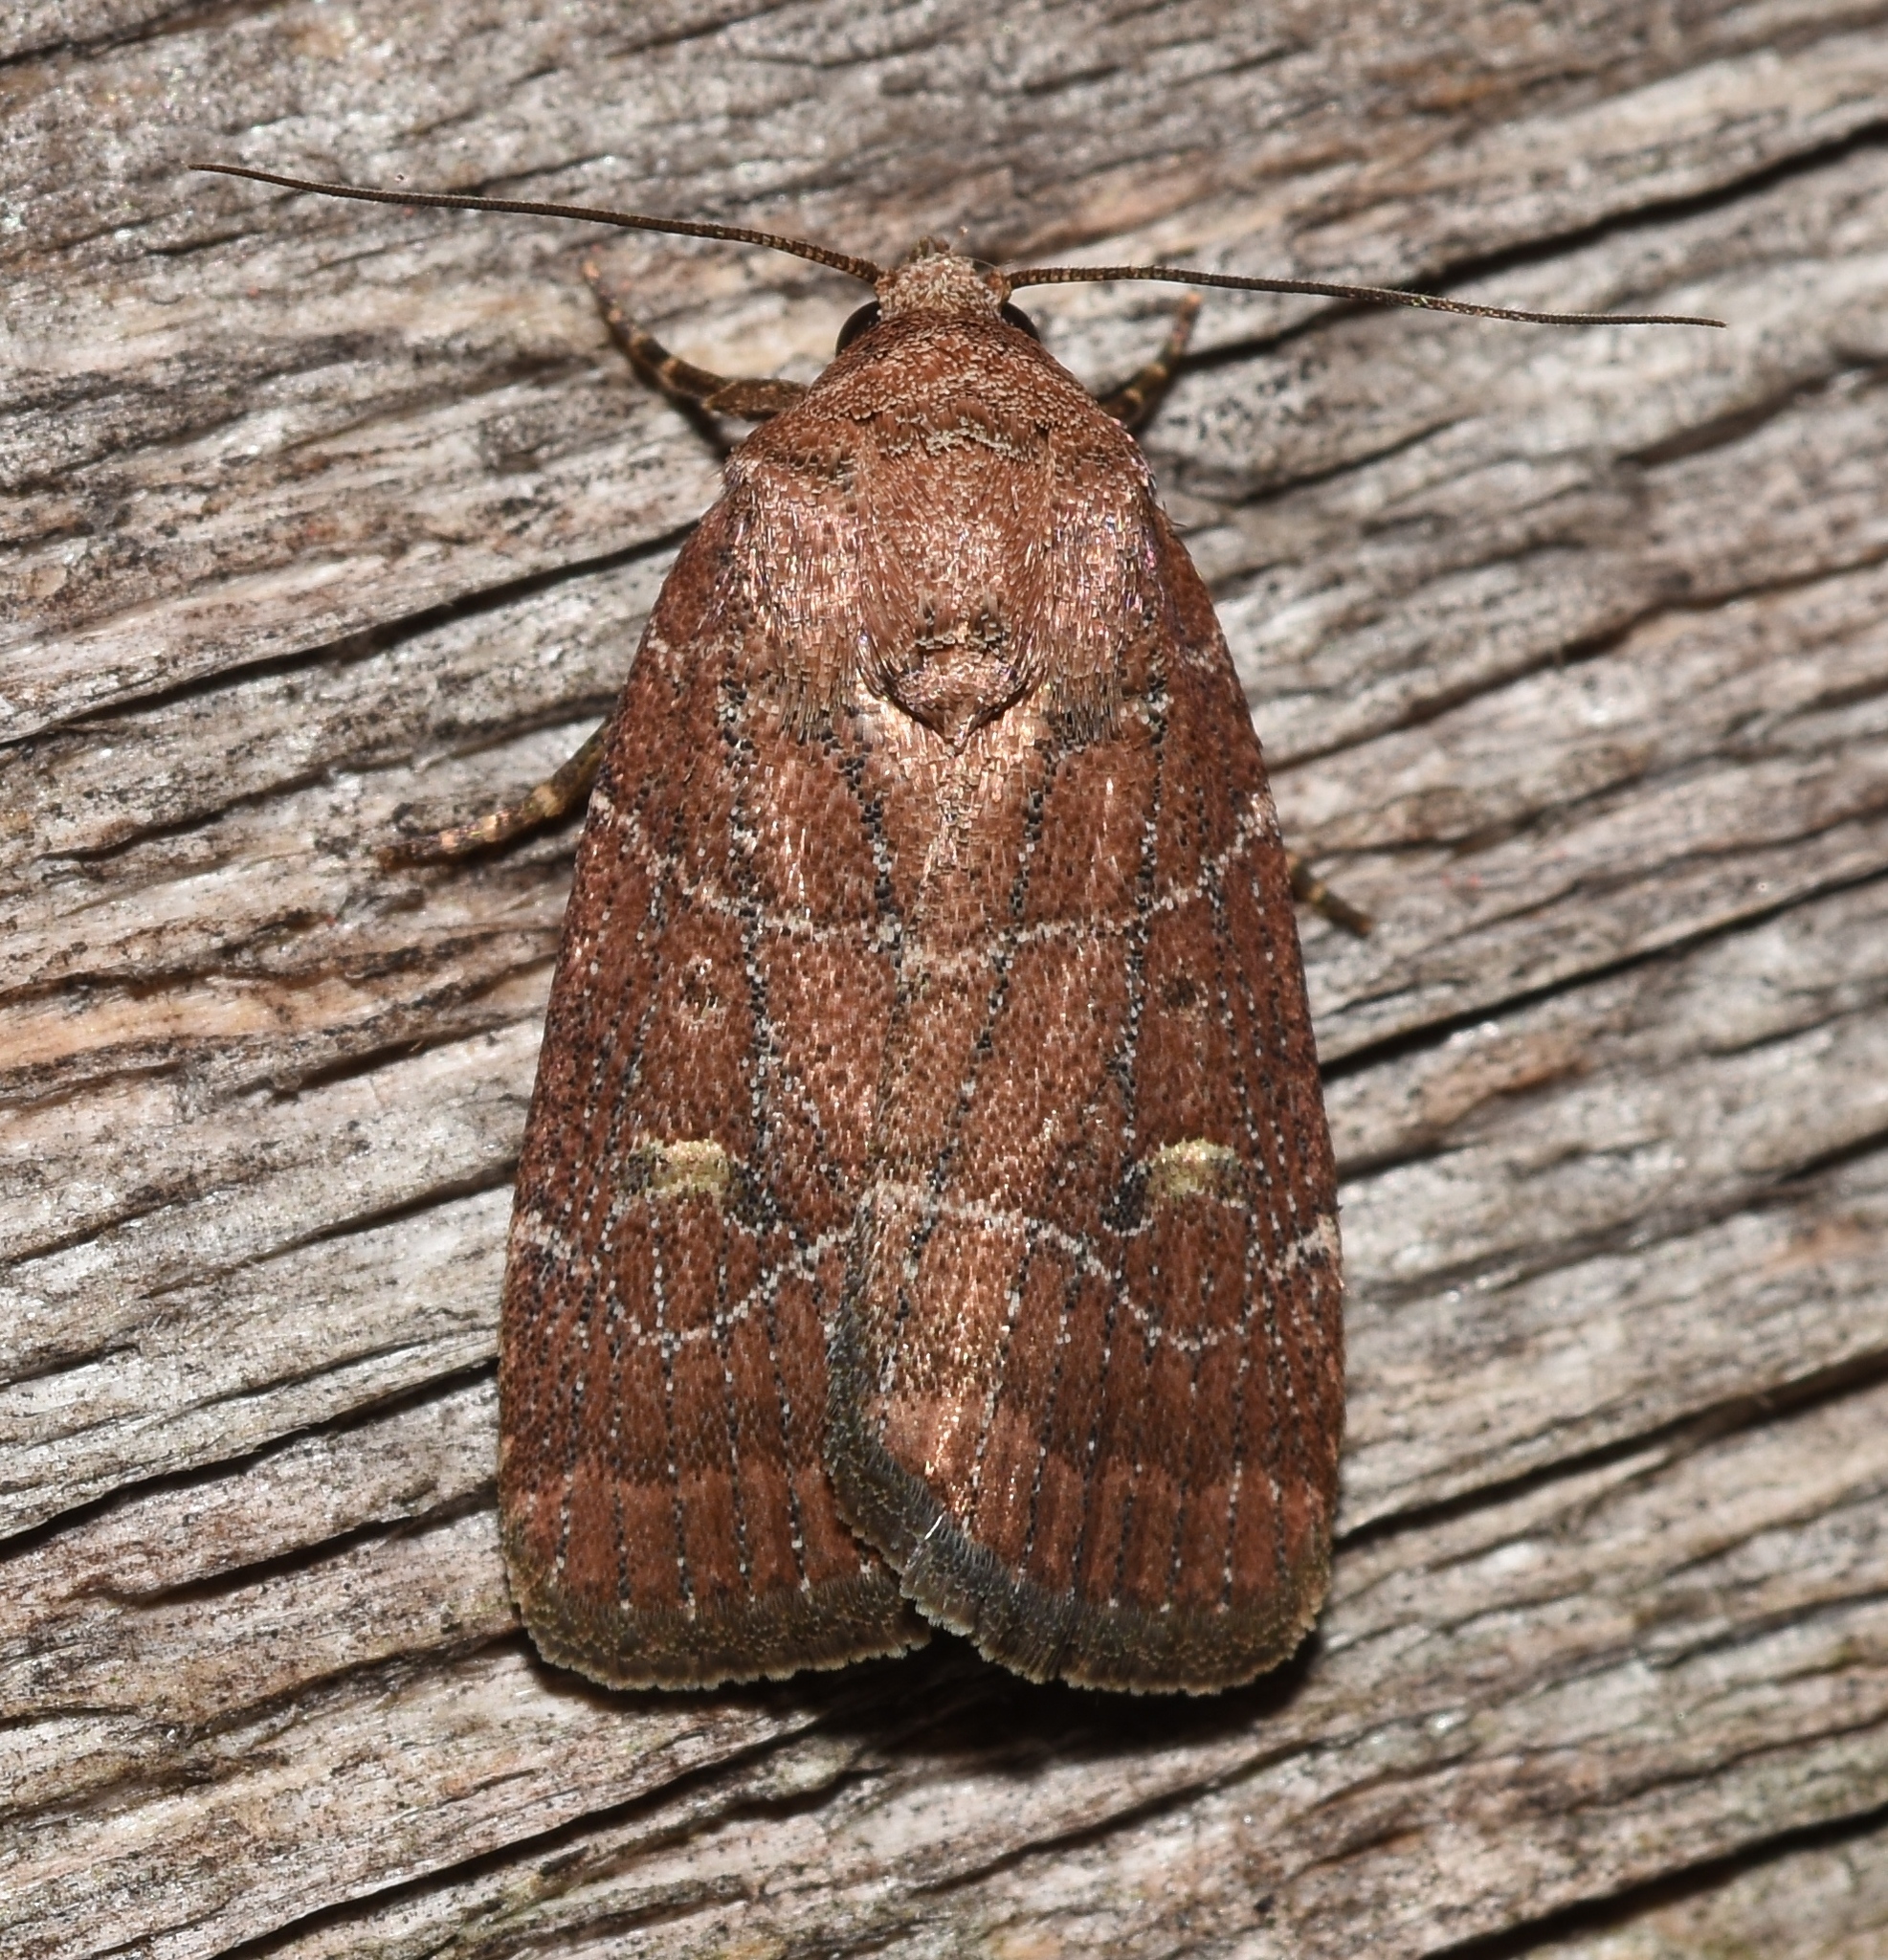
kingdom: Animalia
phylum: Arthropoda
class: Insecta
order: Lepidoptera
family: Noctuidae
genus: Elaphria
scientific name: Elaphria grata
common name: Grateful midget moth
